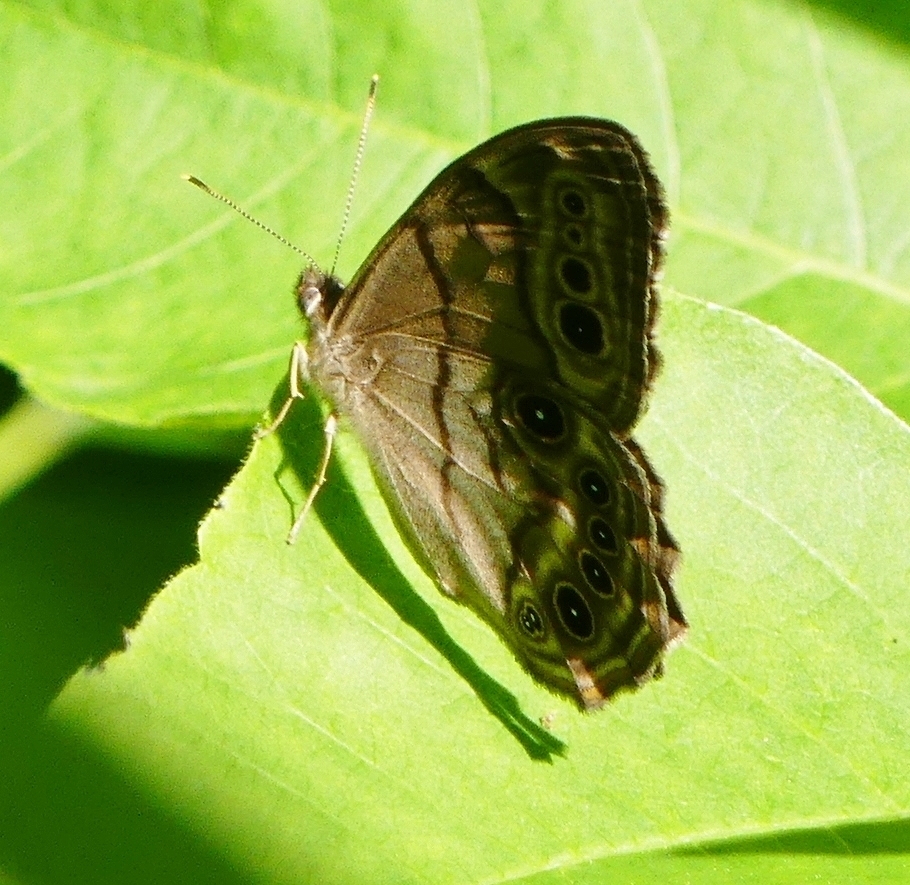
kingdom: Animalia
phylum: Arthropoda
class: Insecta
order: Lepidoptera
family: Nymphalidae
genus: Lethe
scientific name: Lethe anthedon
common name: Northern pearly-eye
